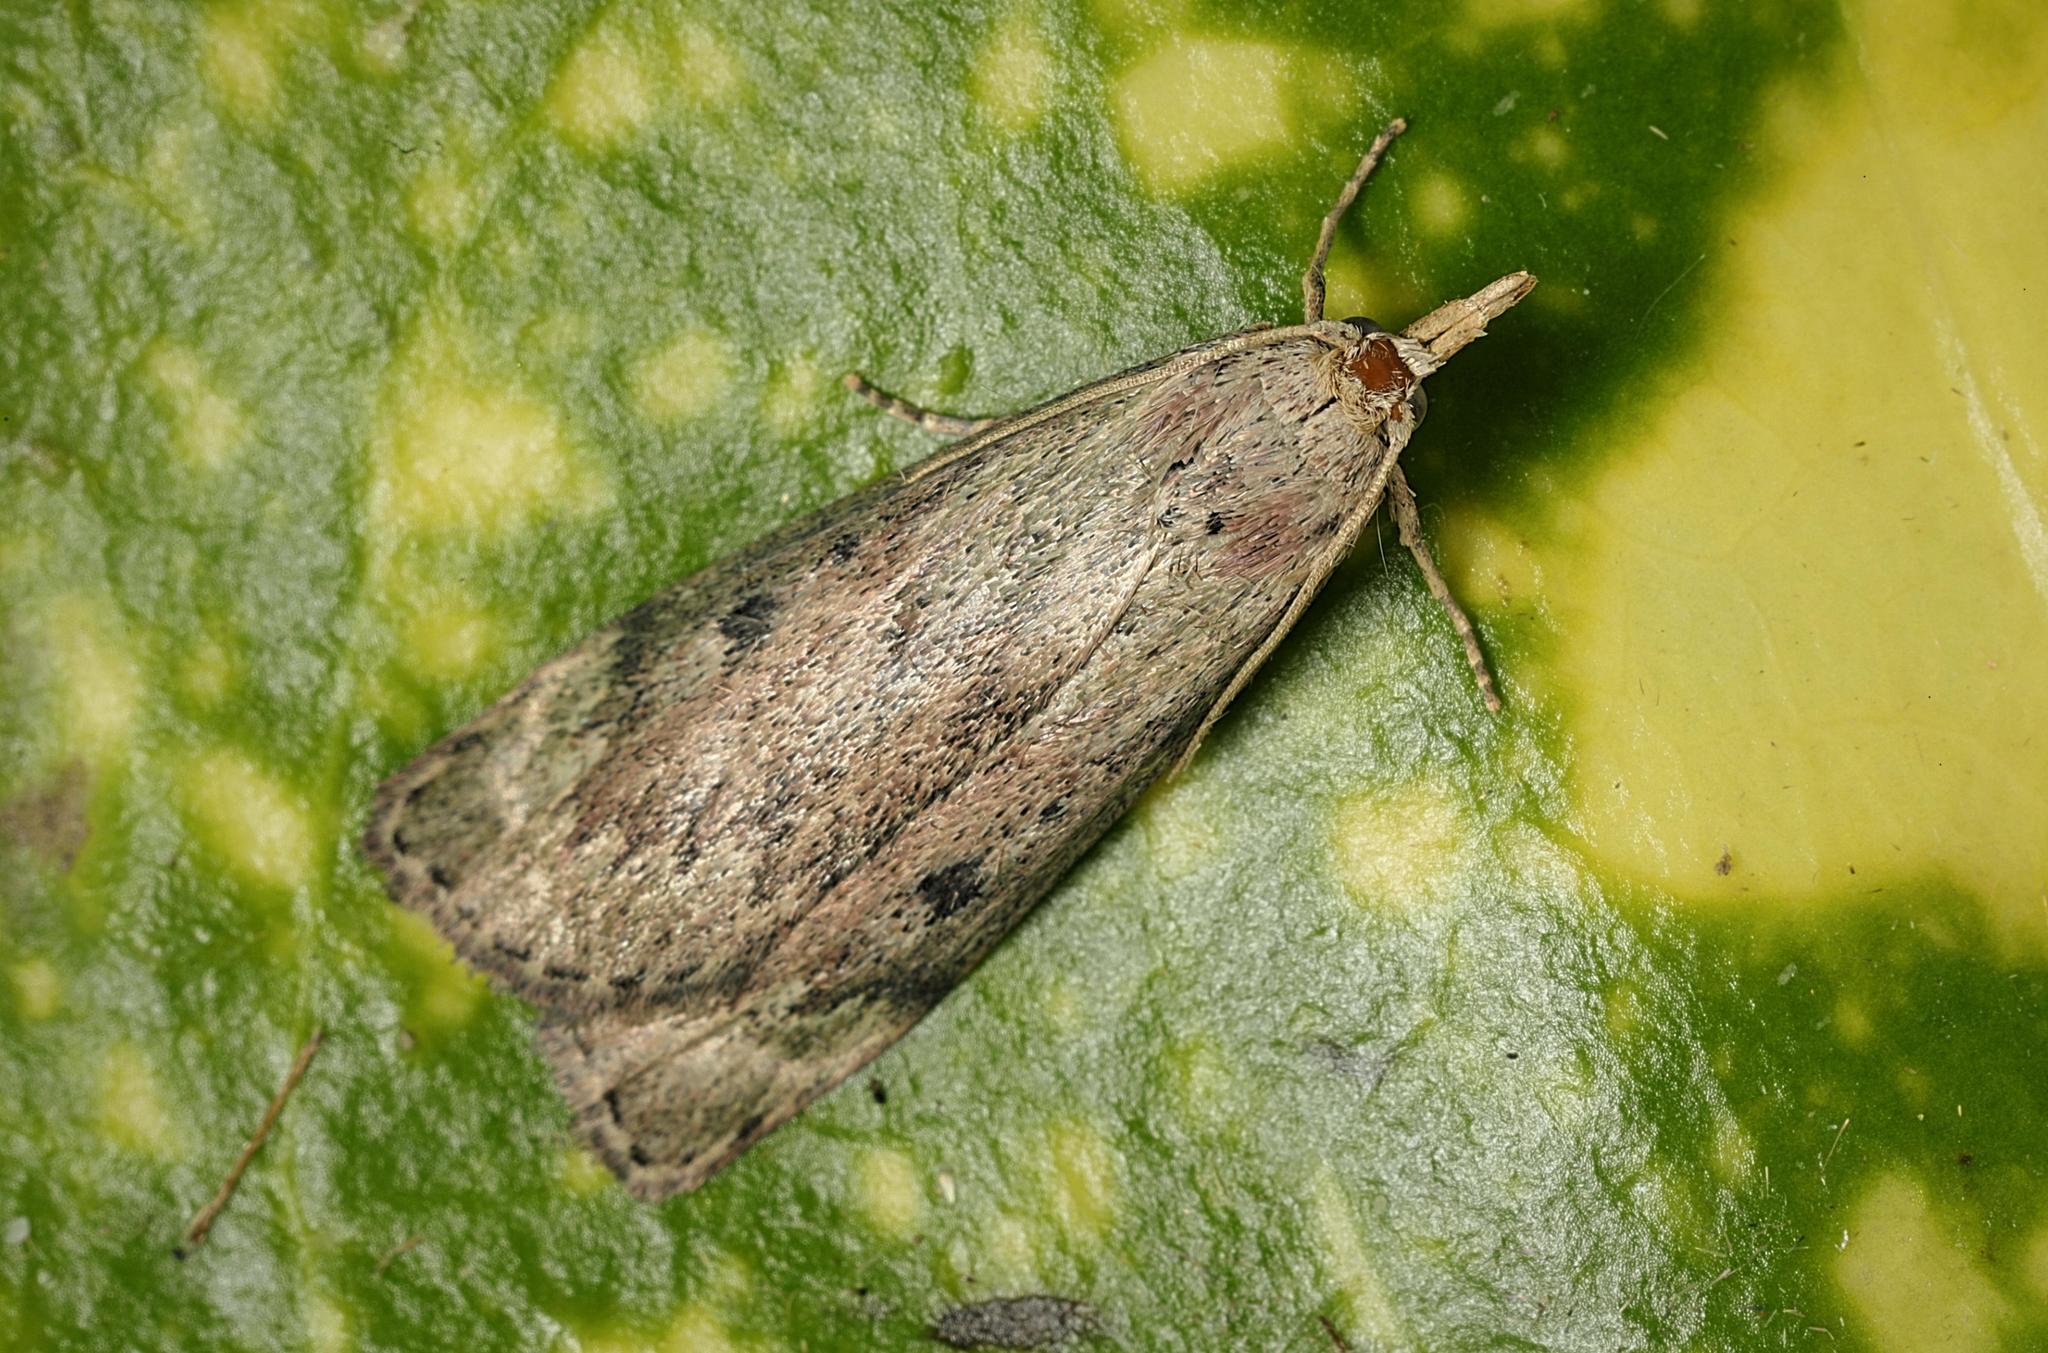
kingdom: Animalia
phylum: Arthropoda
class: Insecta
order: Lepidoptera
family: Pyralidae
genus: Aphomia
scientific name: Aphomia sociella
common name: Bee moth
